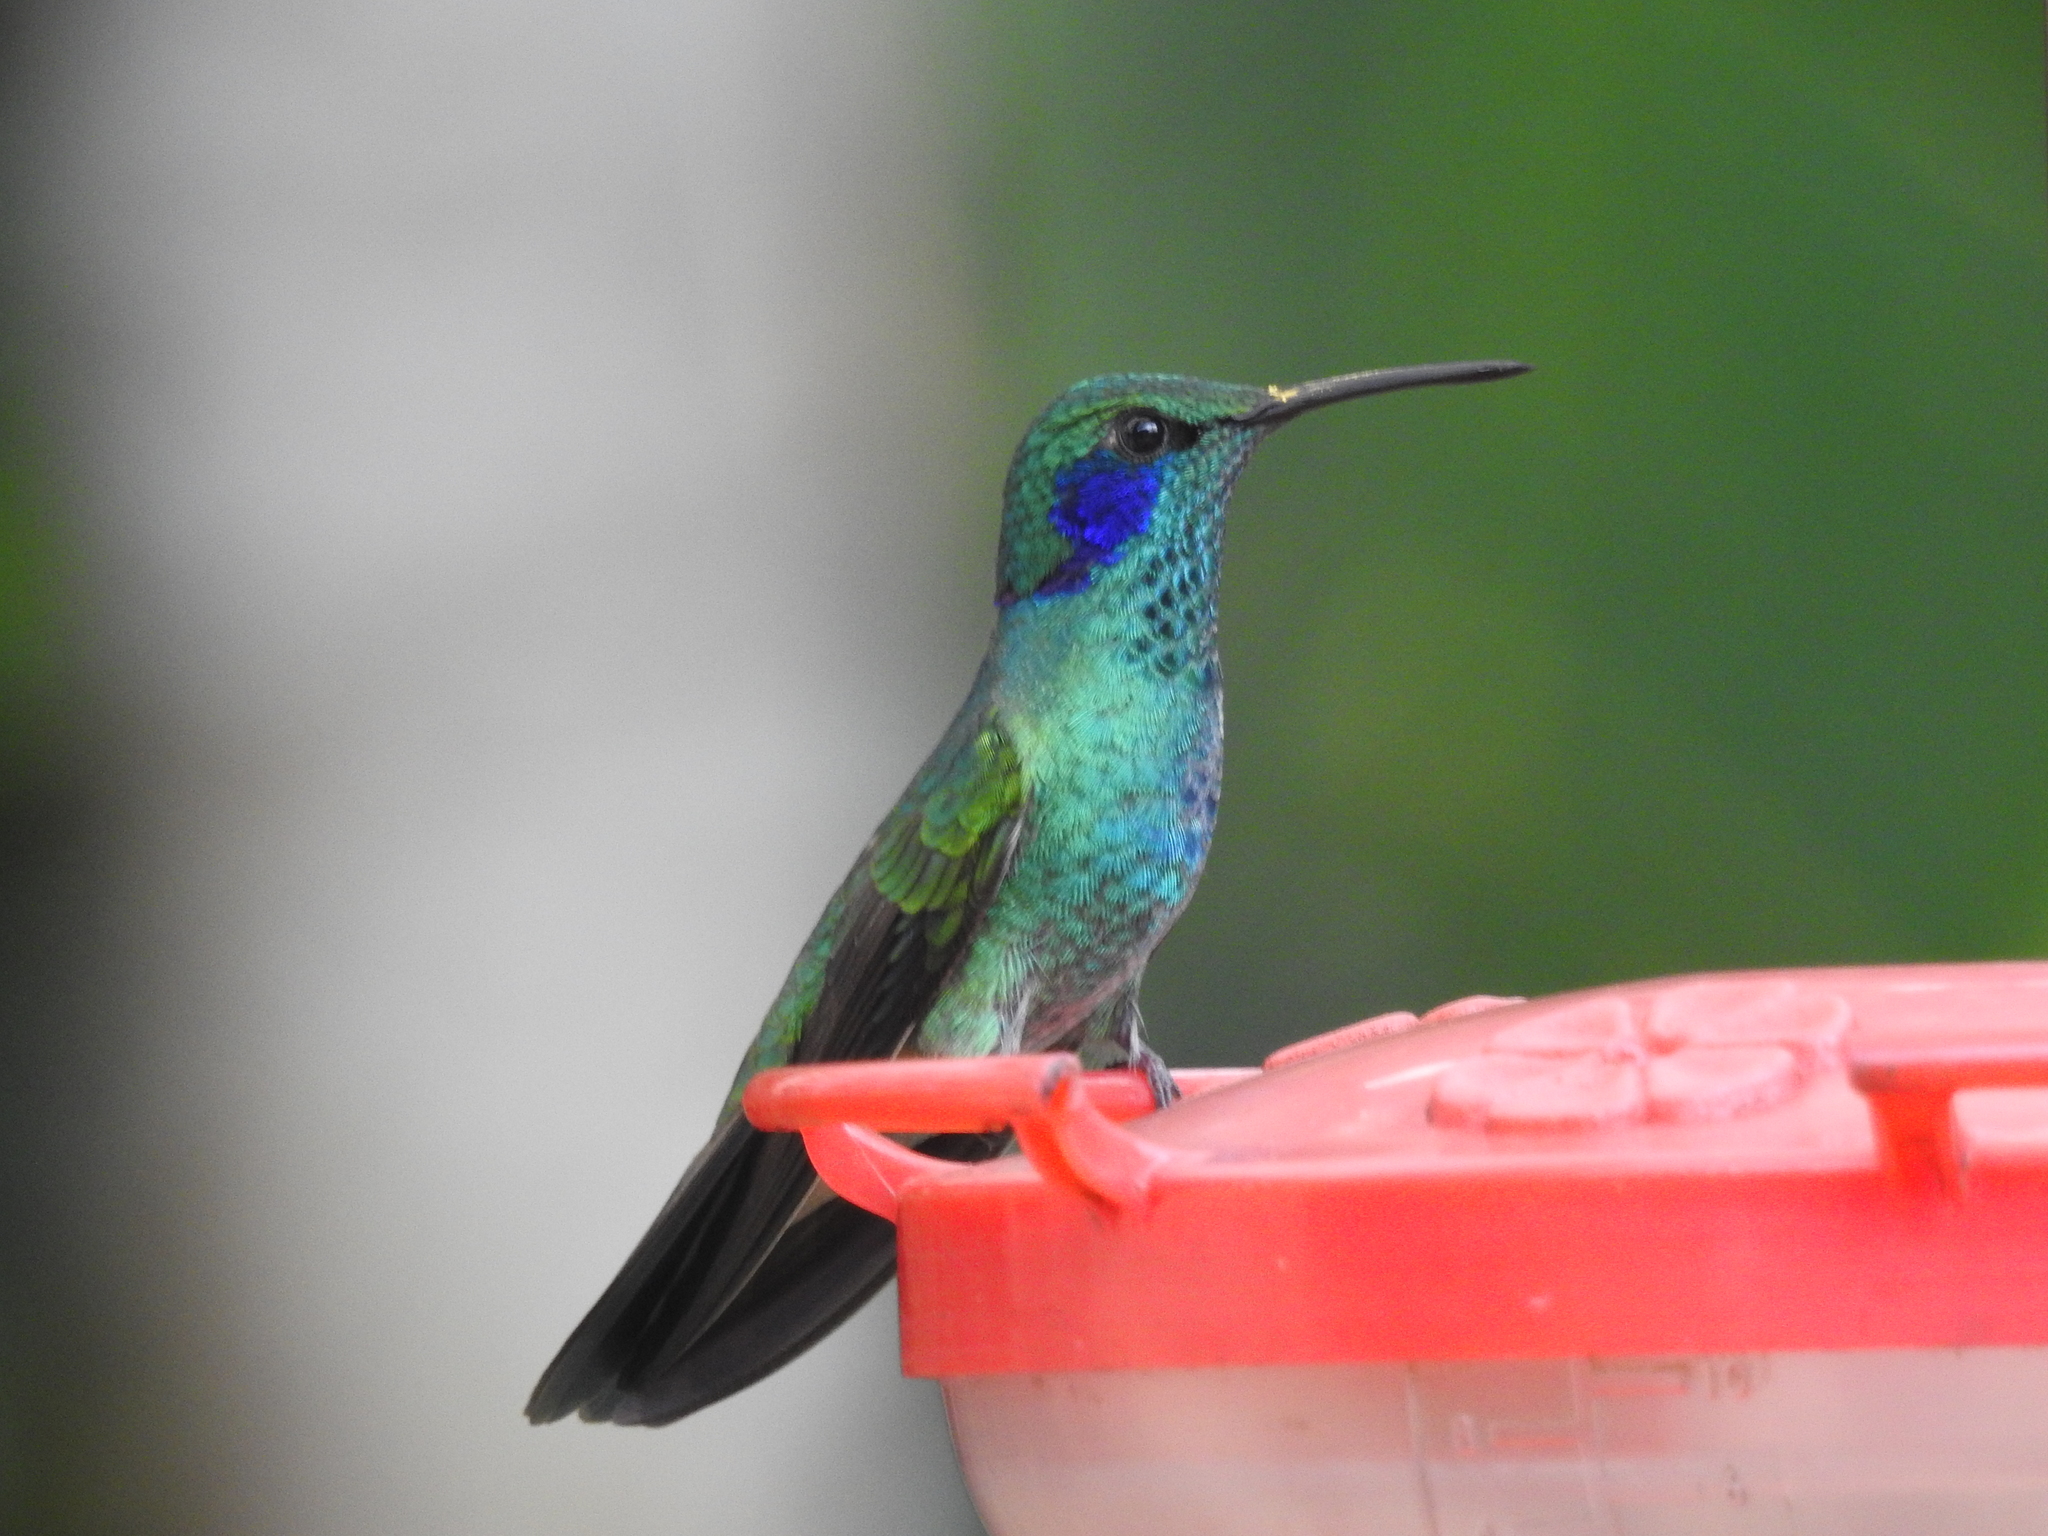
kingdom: Animalia
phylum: Chordata
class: Aves
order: Apodiformes
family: Trochilidae
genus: Colibri
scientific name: Colibri cyanotus
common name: Lesser violetear
